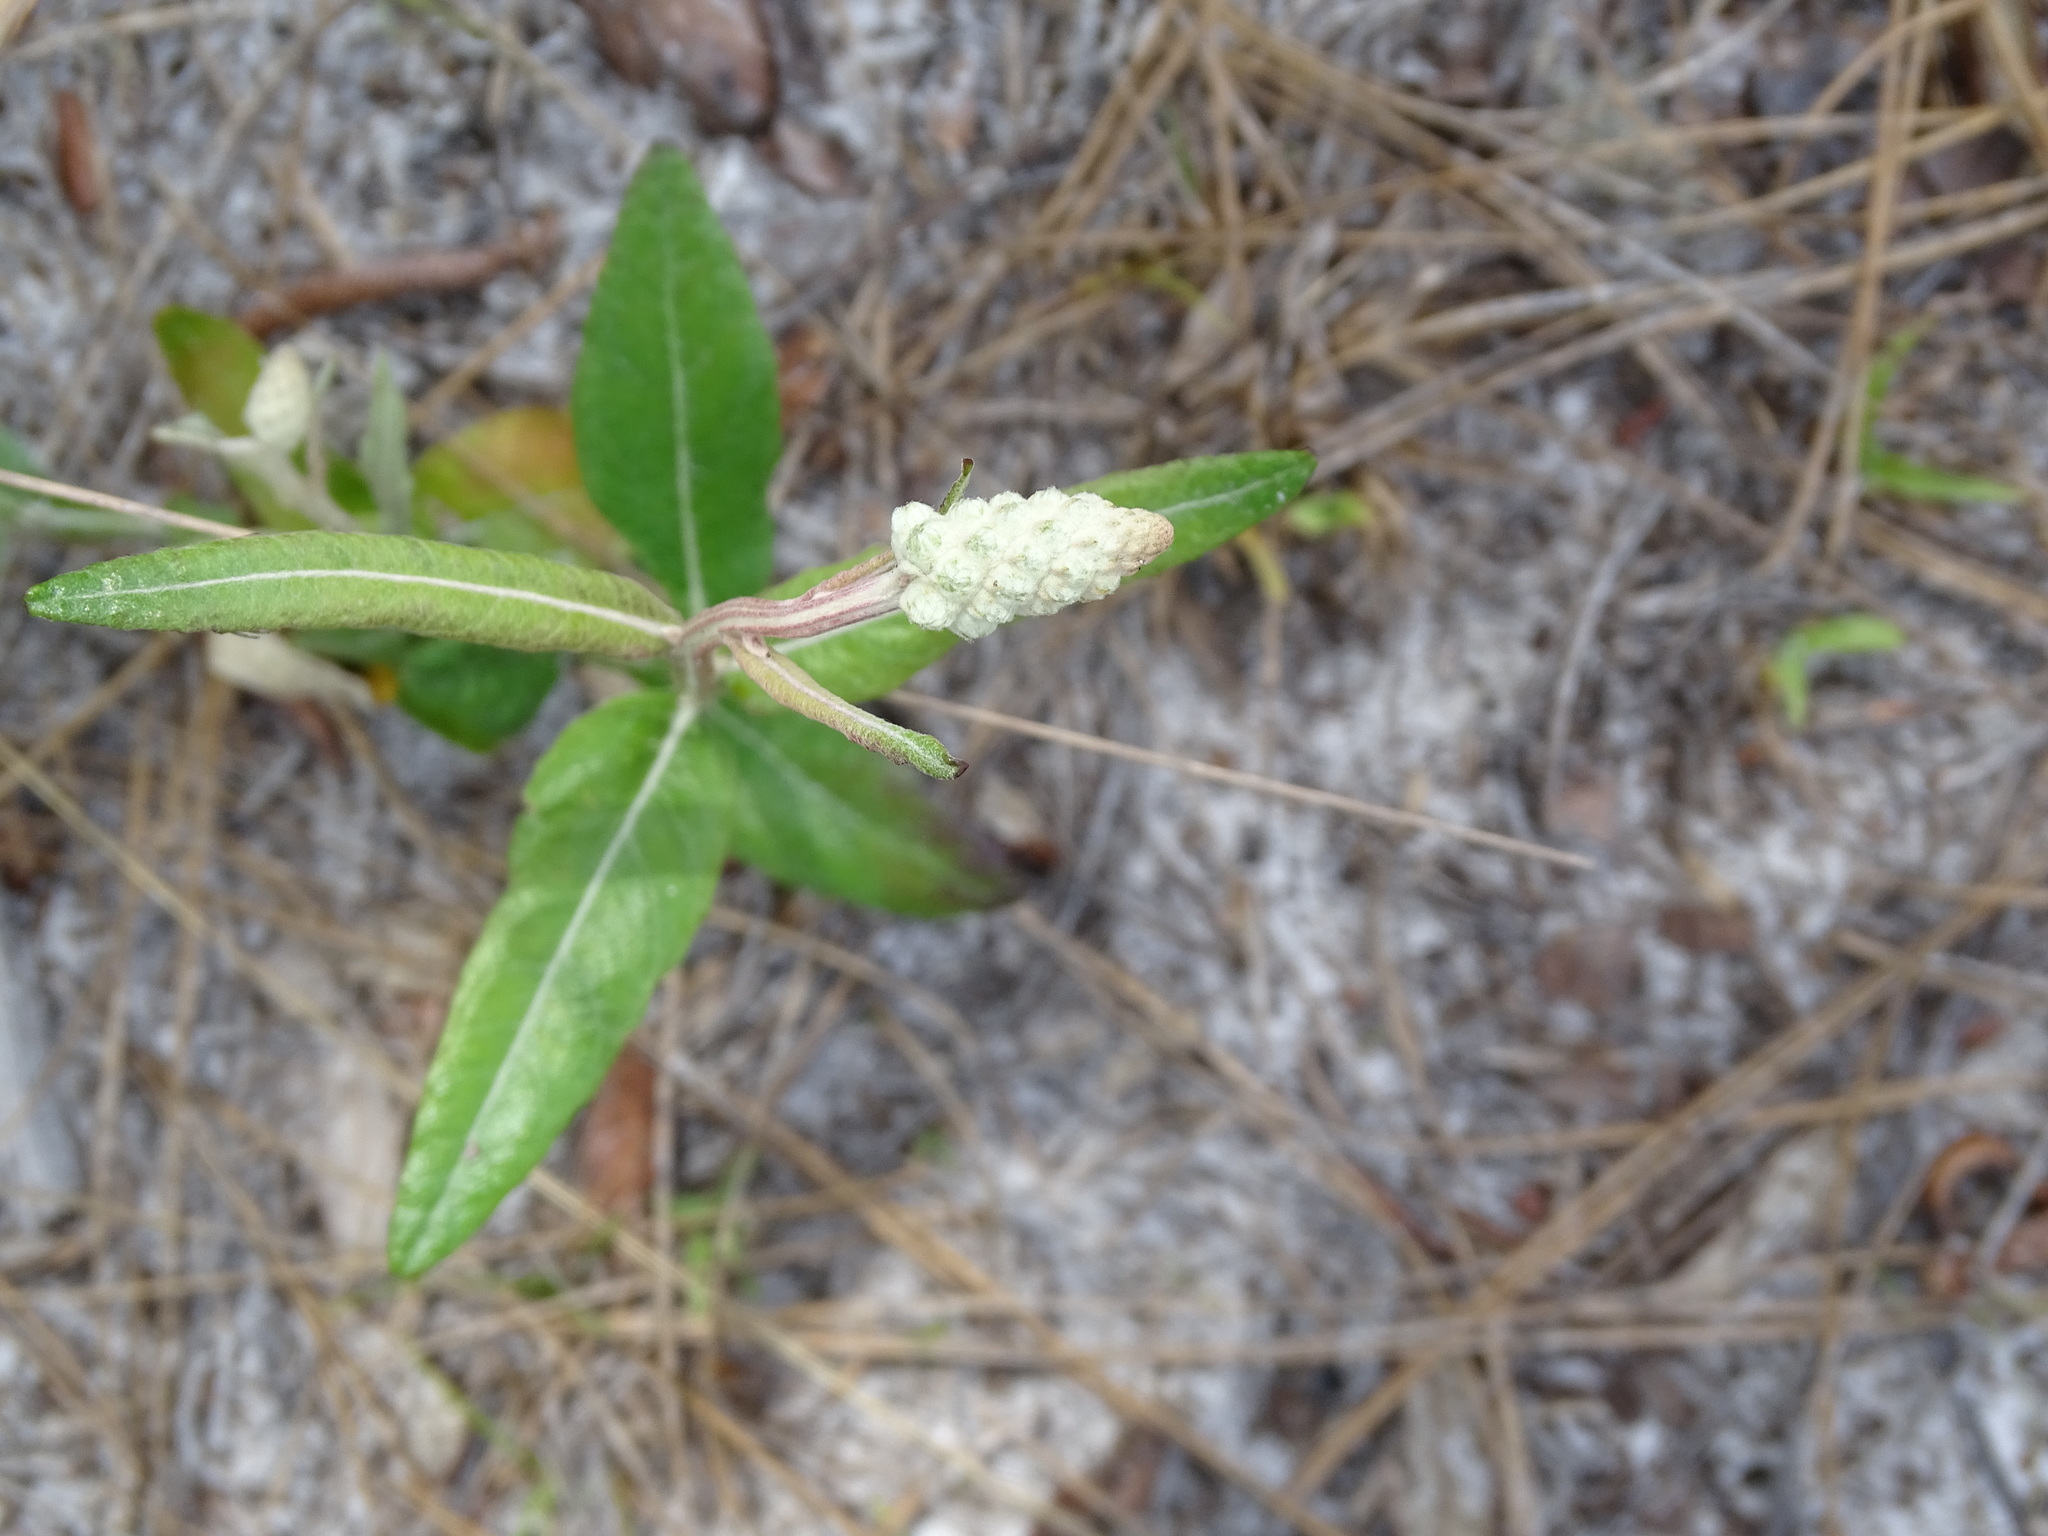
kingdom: Plantae
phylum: Tracheophyta
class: Magnoliopsida
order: Asterales
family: Asteraceae
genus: Pterocaulon
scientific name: Pterocaulon pycnostachyum
